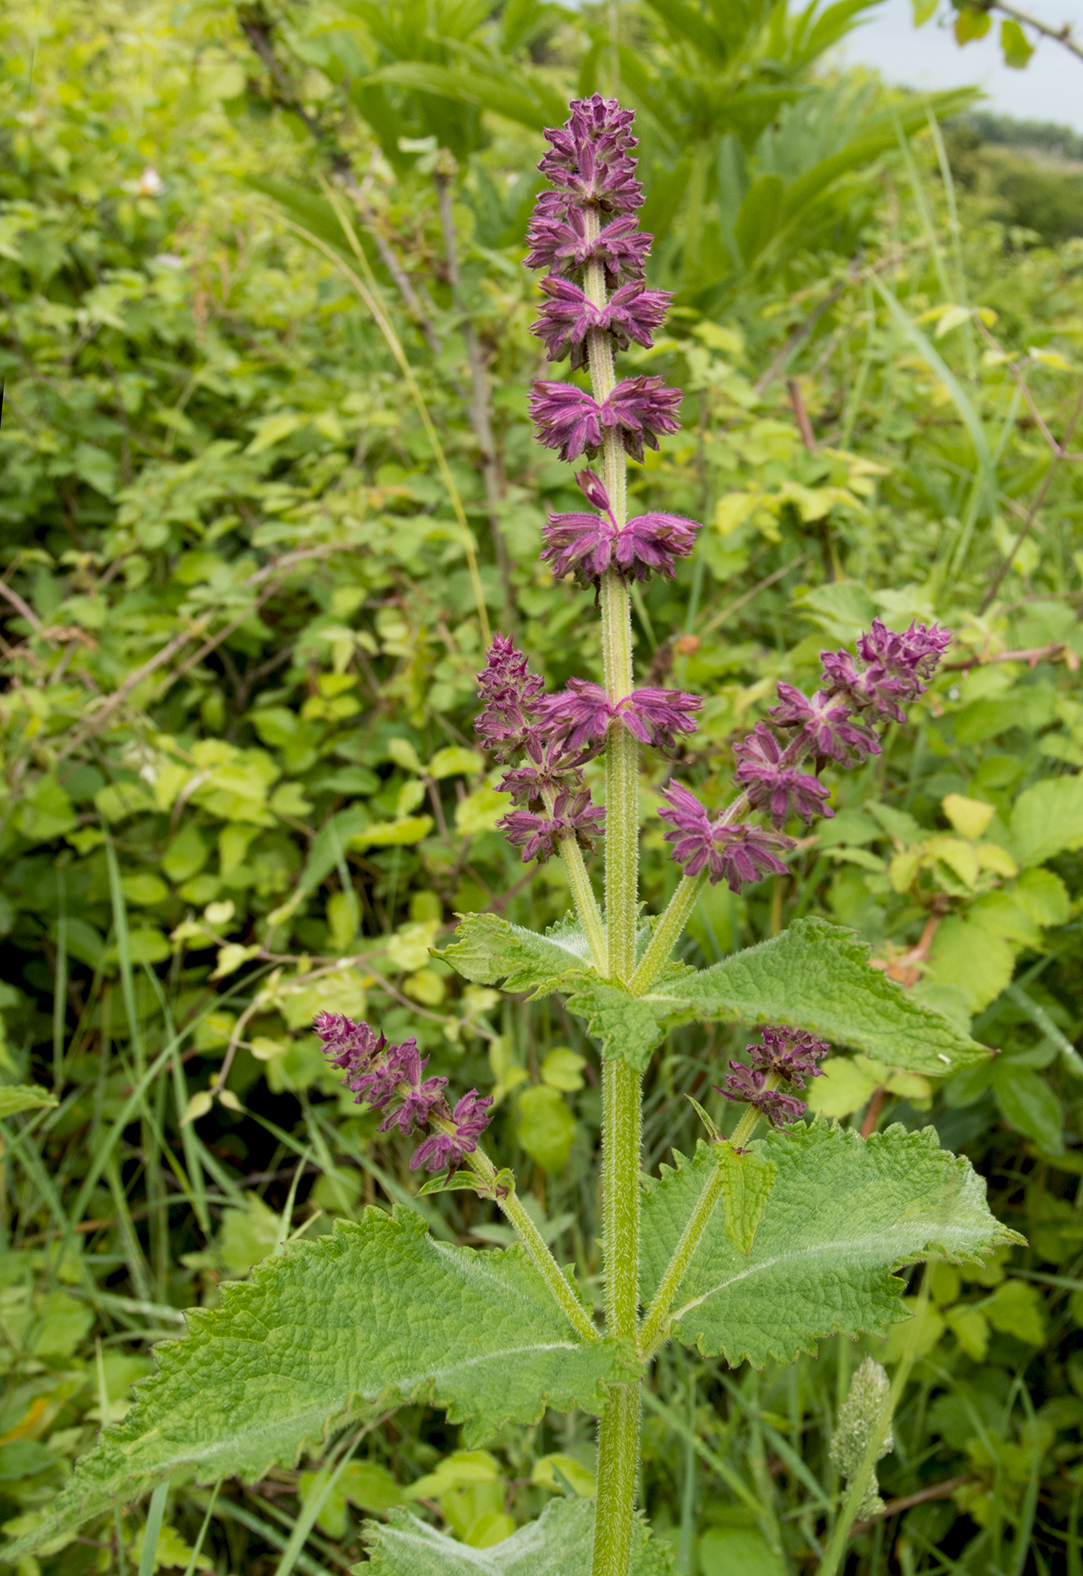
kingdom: Plantae
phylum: Tracheophyta
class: Magnoliopsida
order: Lamiales
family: Lamiaceae
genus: Salvia
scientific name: Salvia verticillata
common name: Whorled clary
